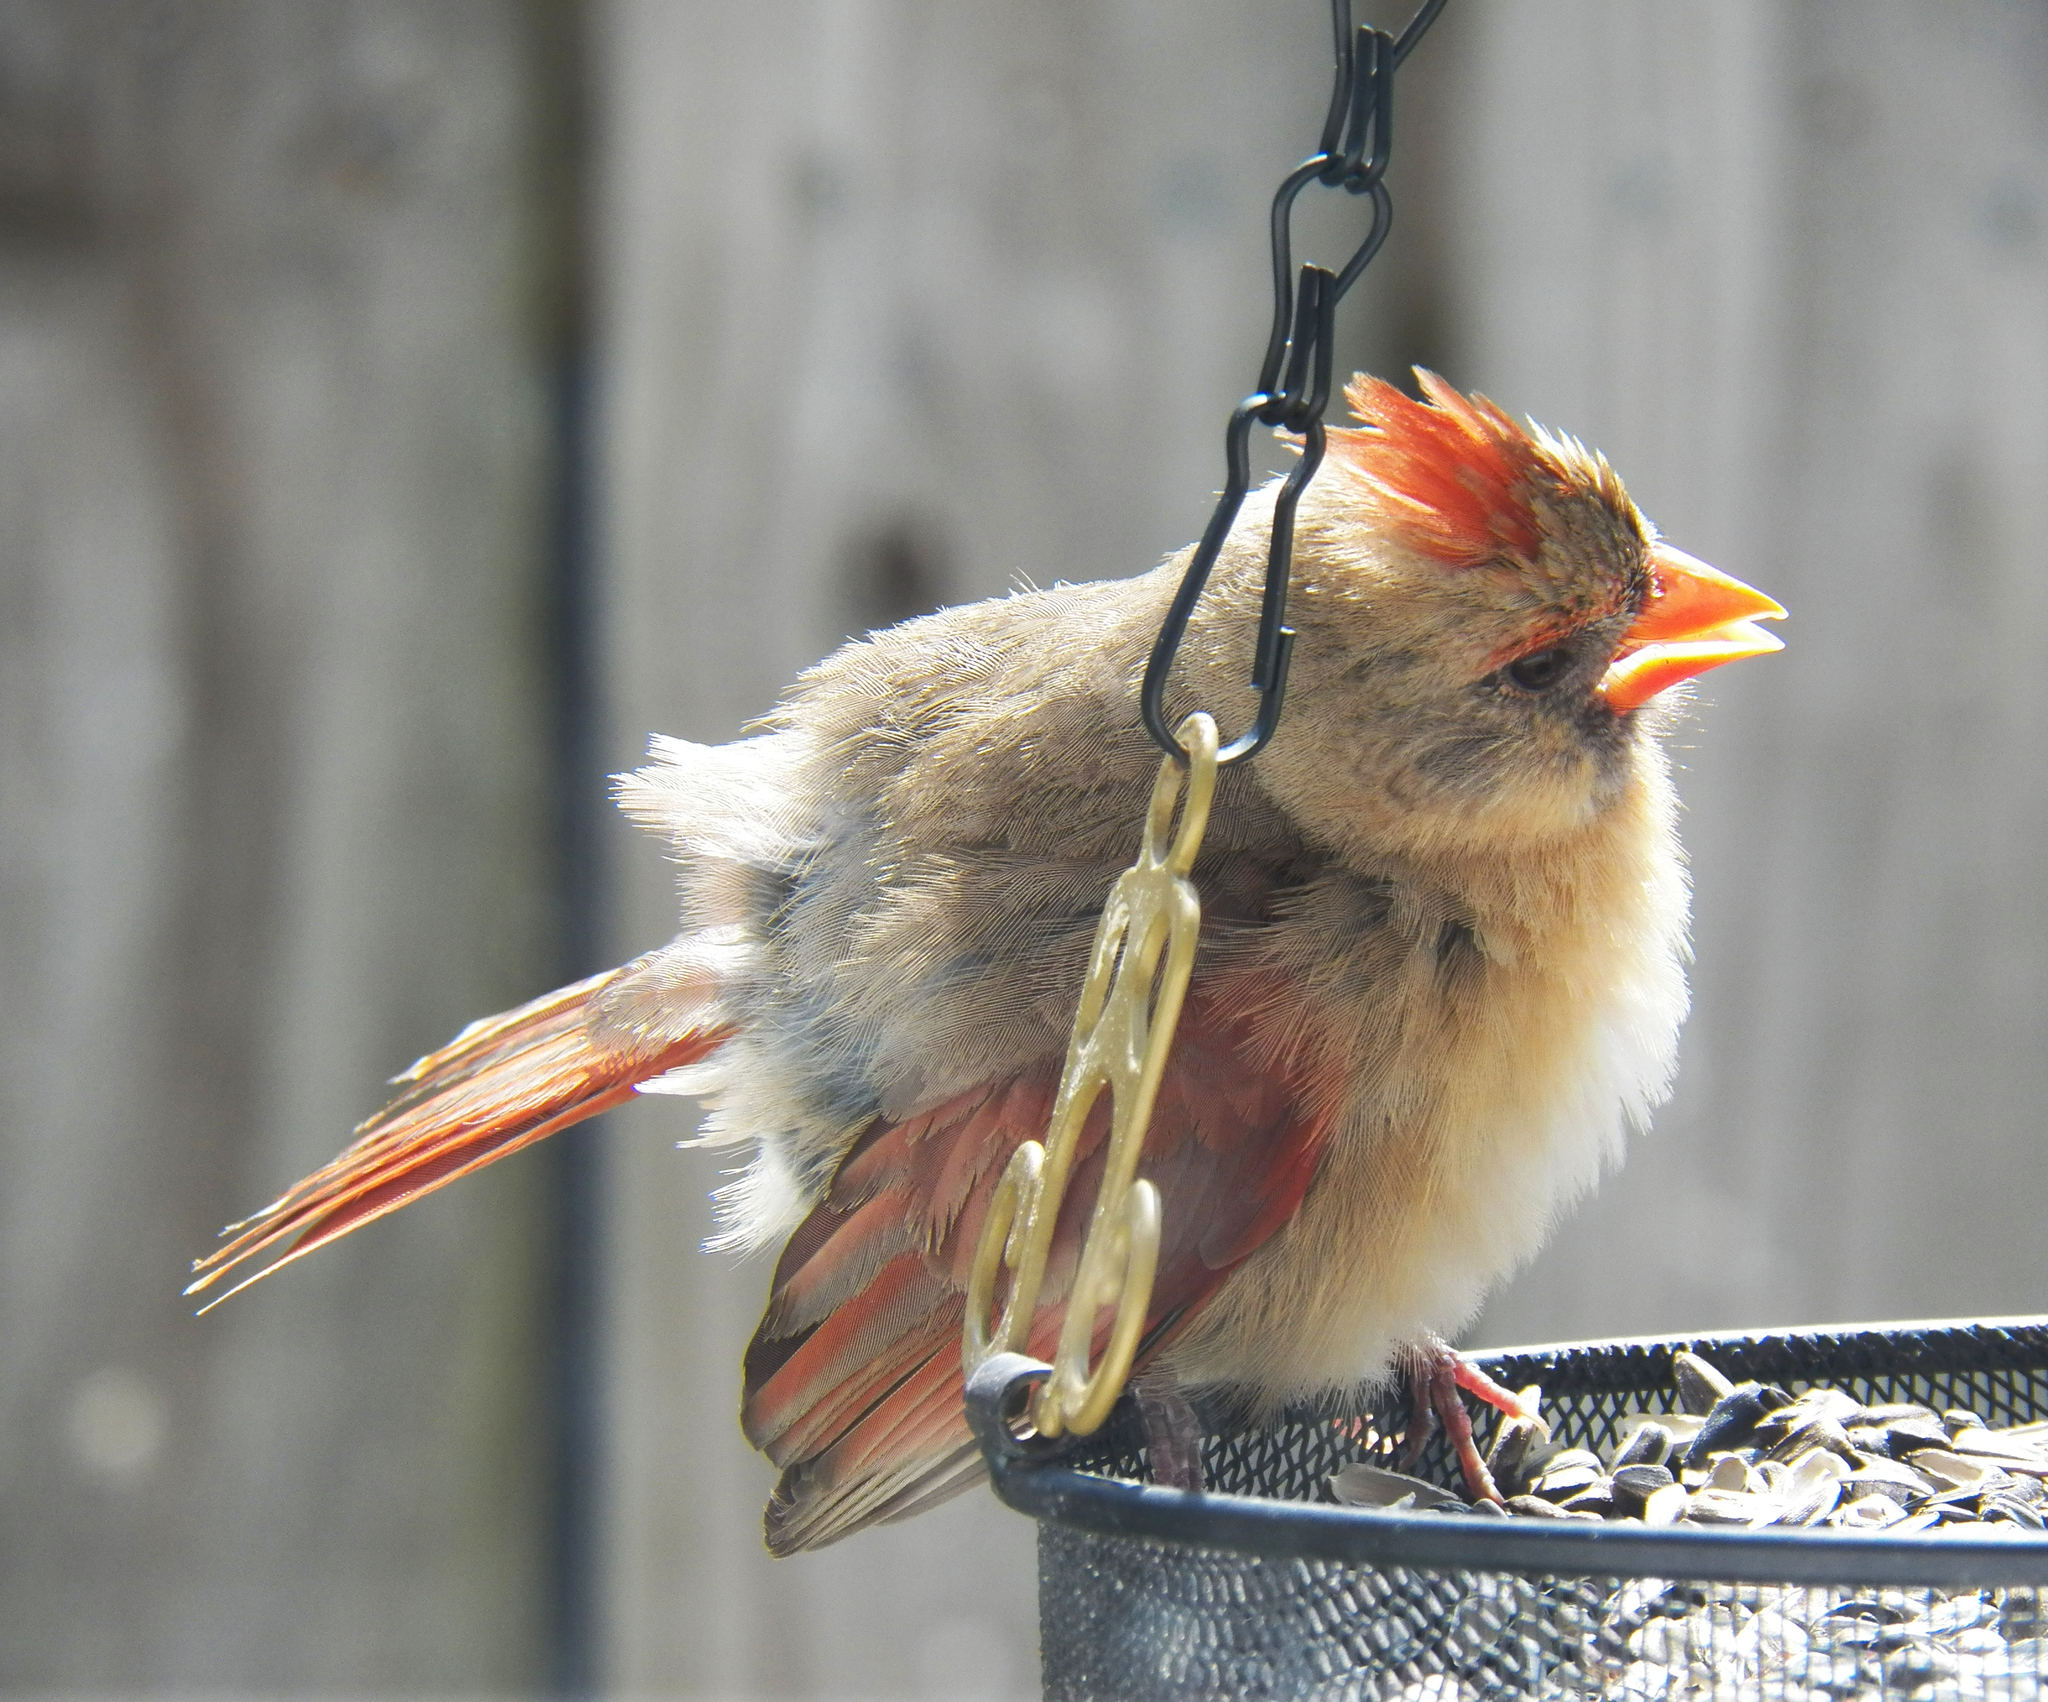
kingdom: Animalia
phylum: Chordata
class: Aves
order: Passeriformes
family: Cardinalidae
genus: Cardinalis
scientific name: Cardinalis cardinalis
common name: Northern cardinal
